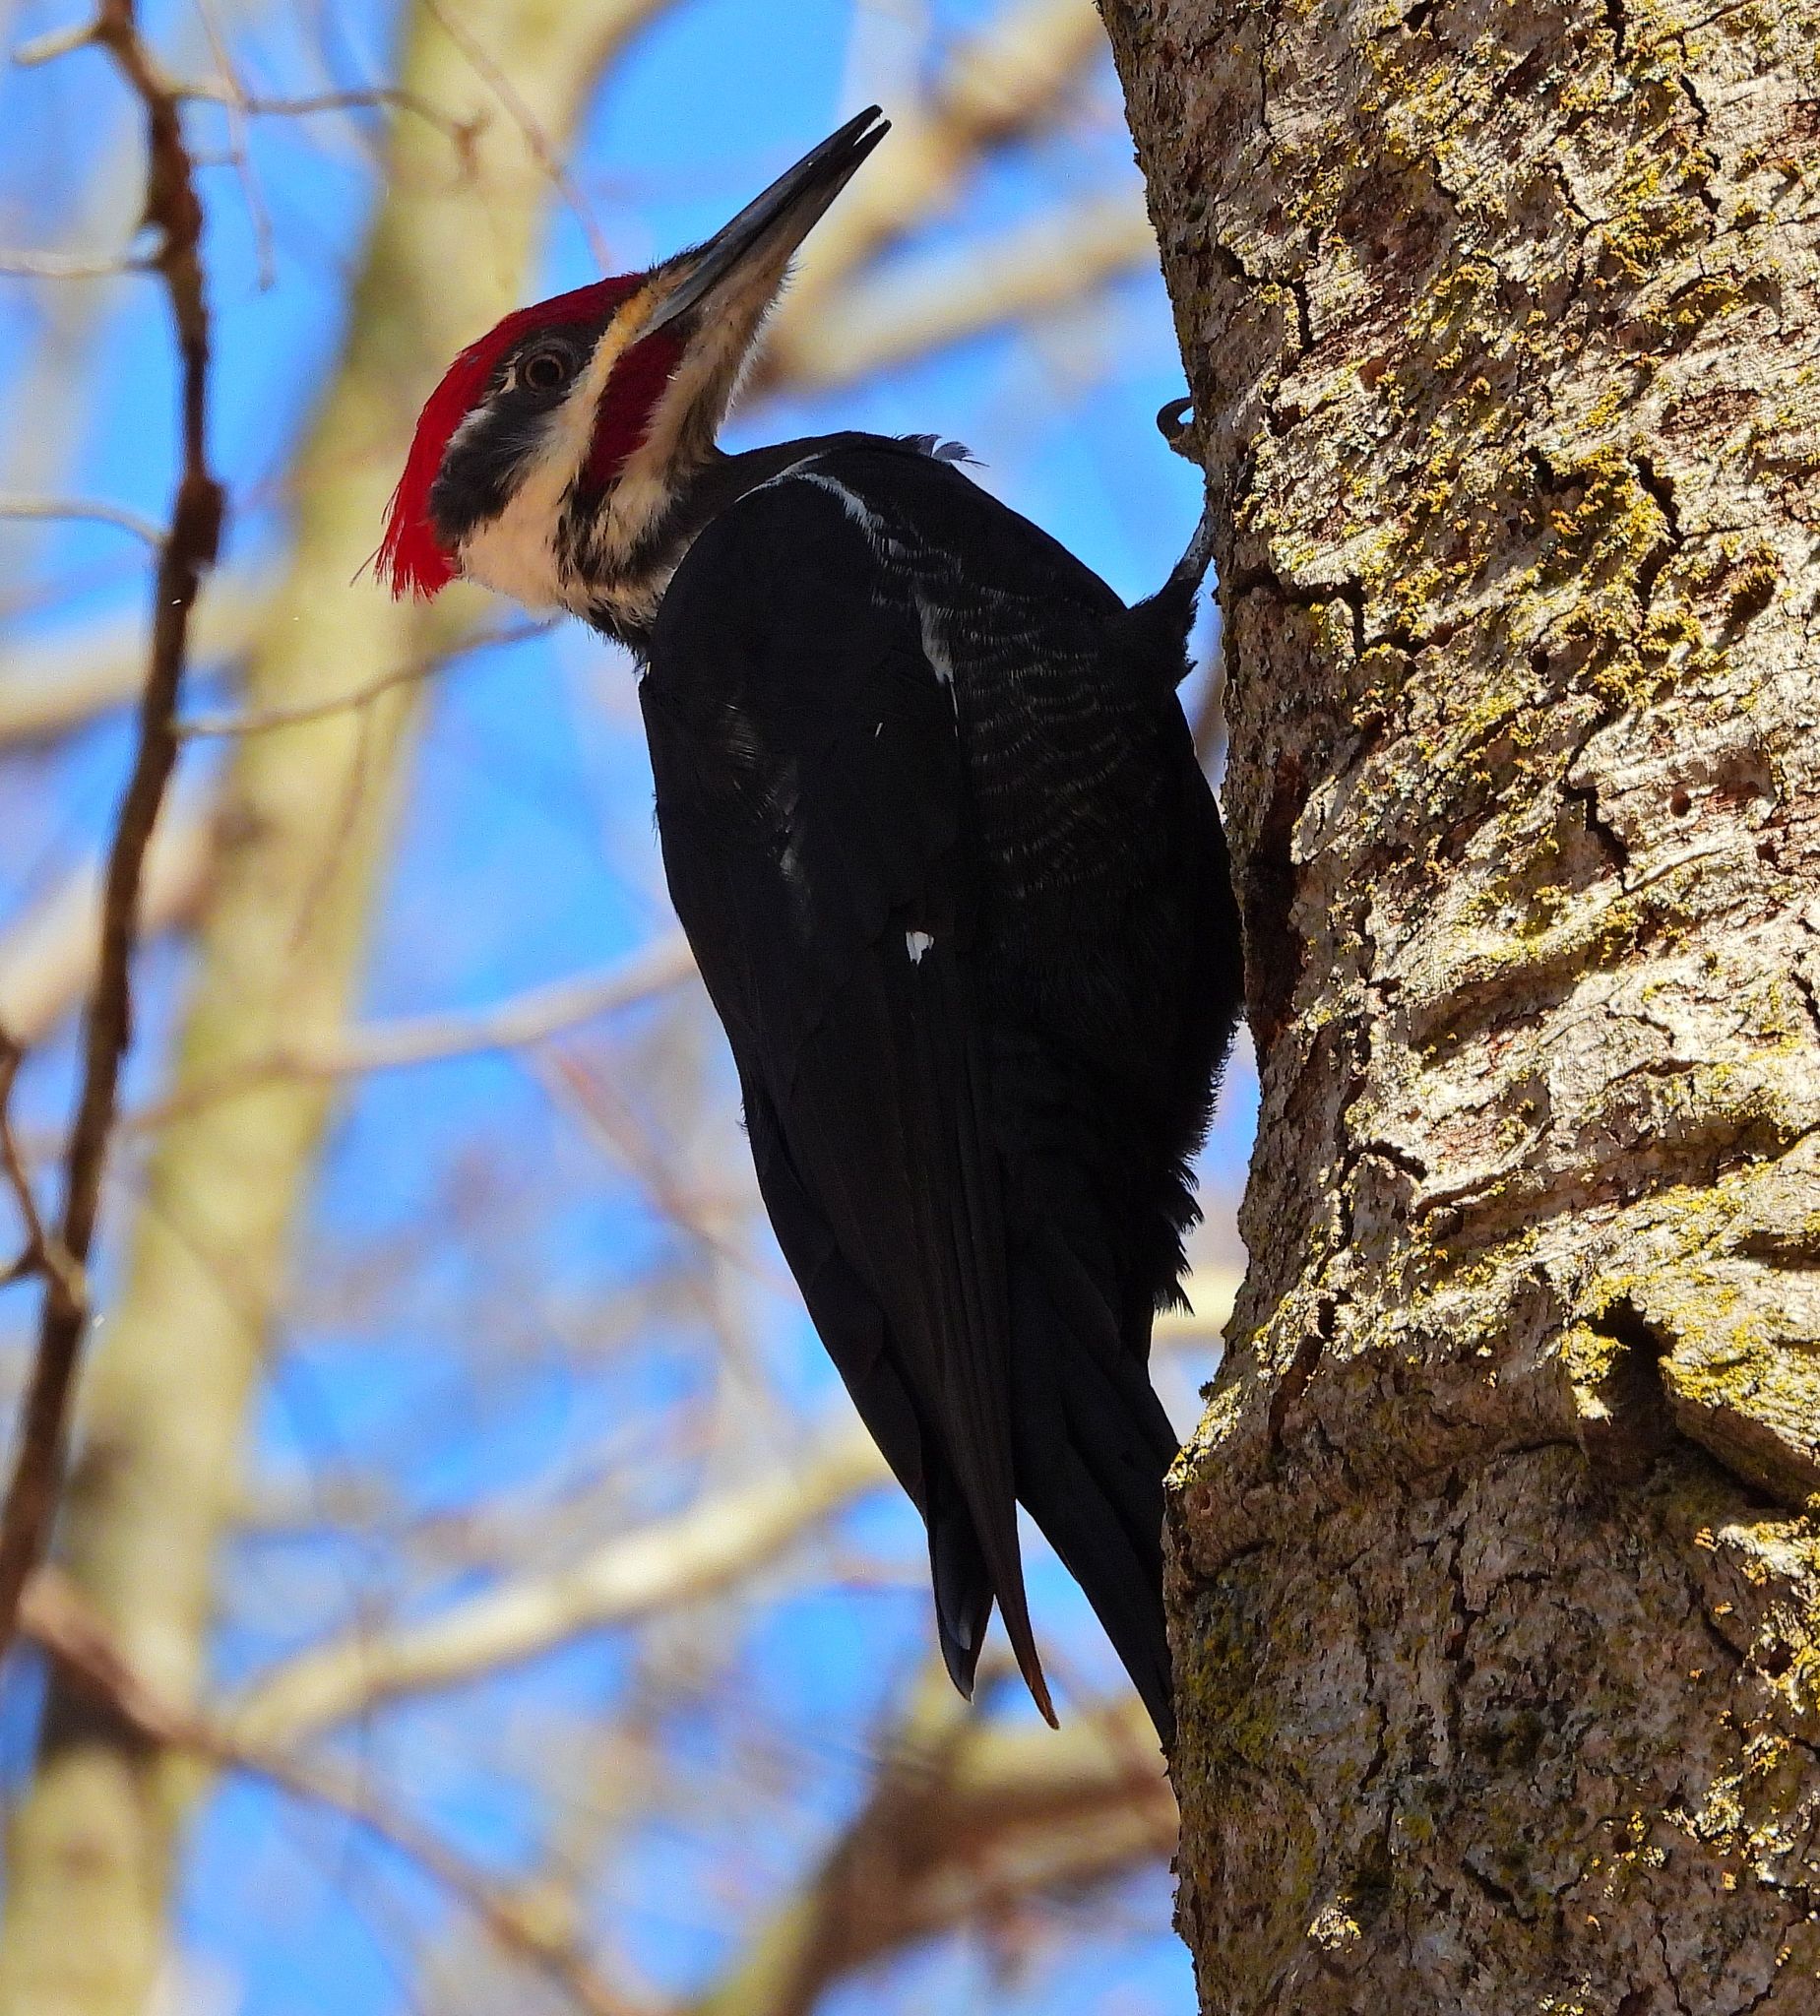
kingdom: Animalia
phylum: Chordata
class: Aves
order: Piciformes
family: Picidae
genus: Dryocopus
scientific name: Dryocopus pileatus
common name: Pileated woodpecker
